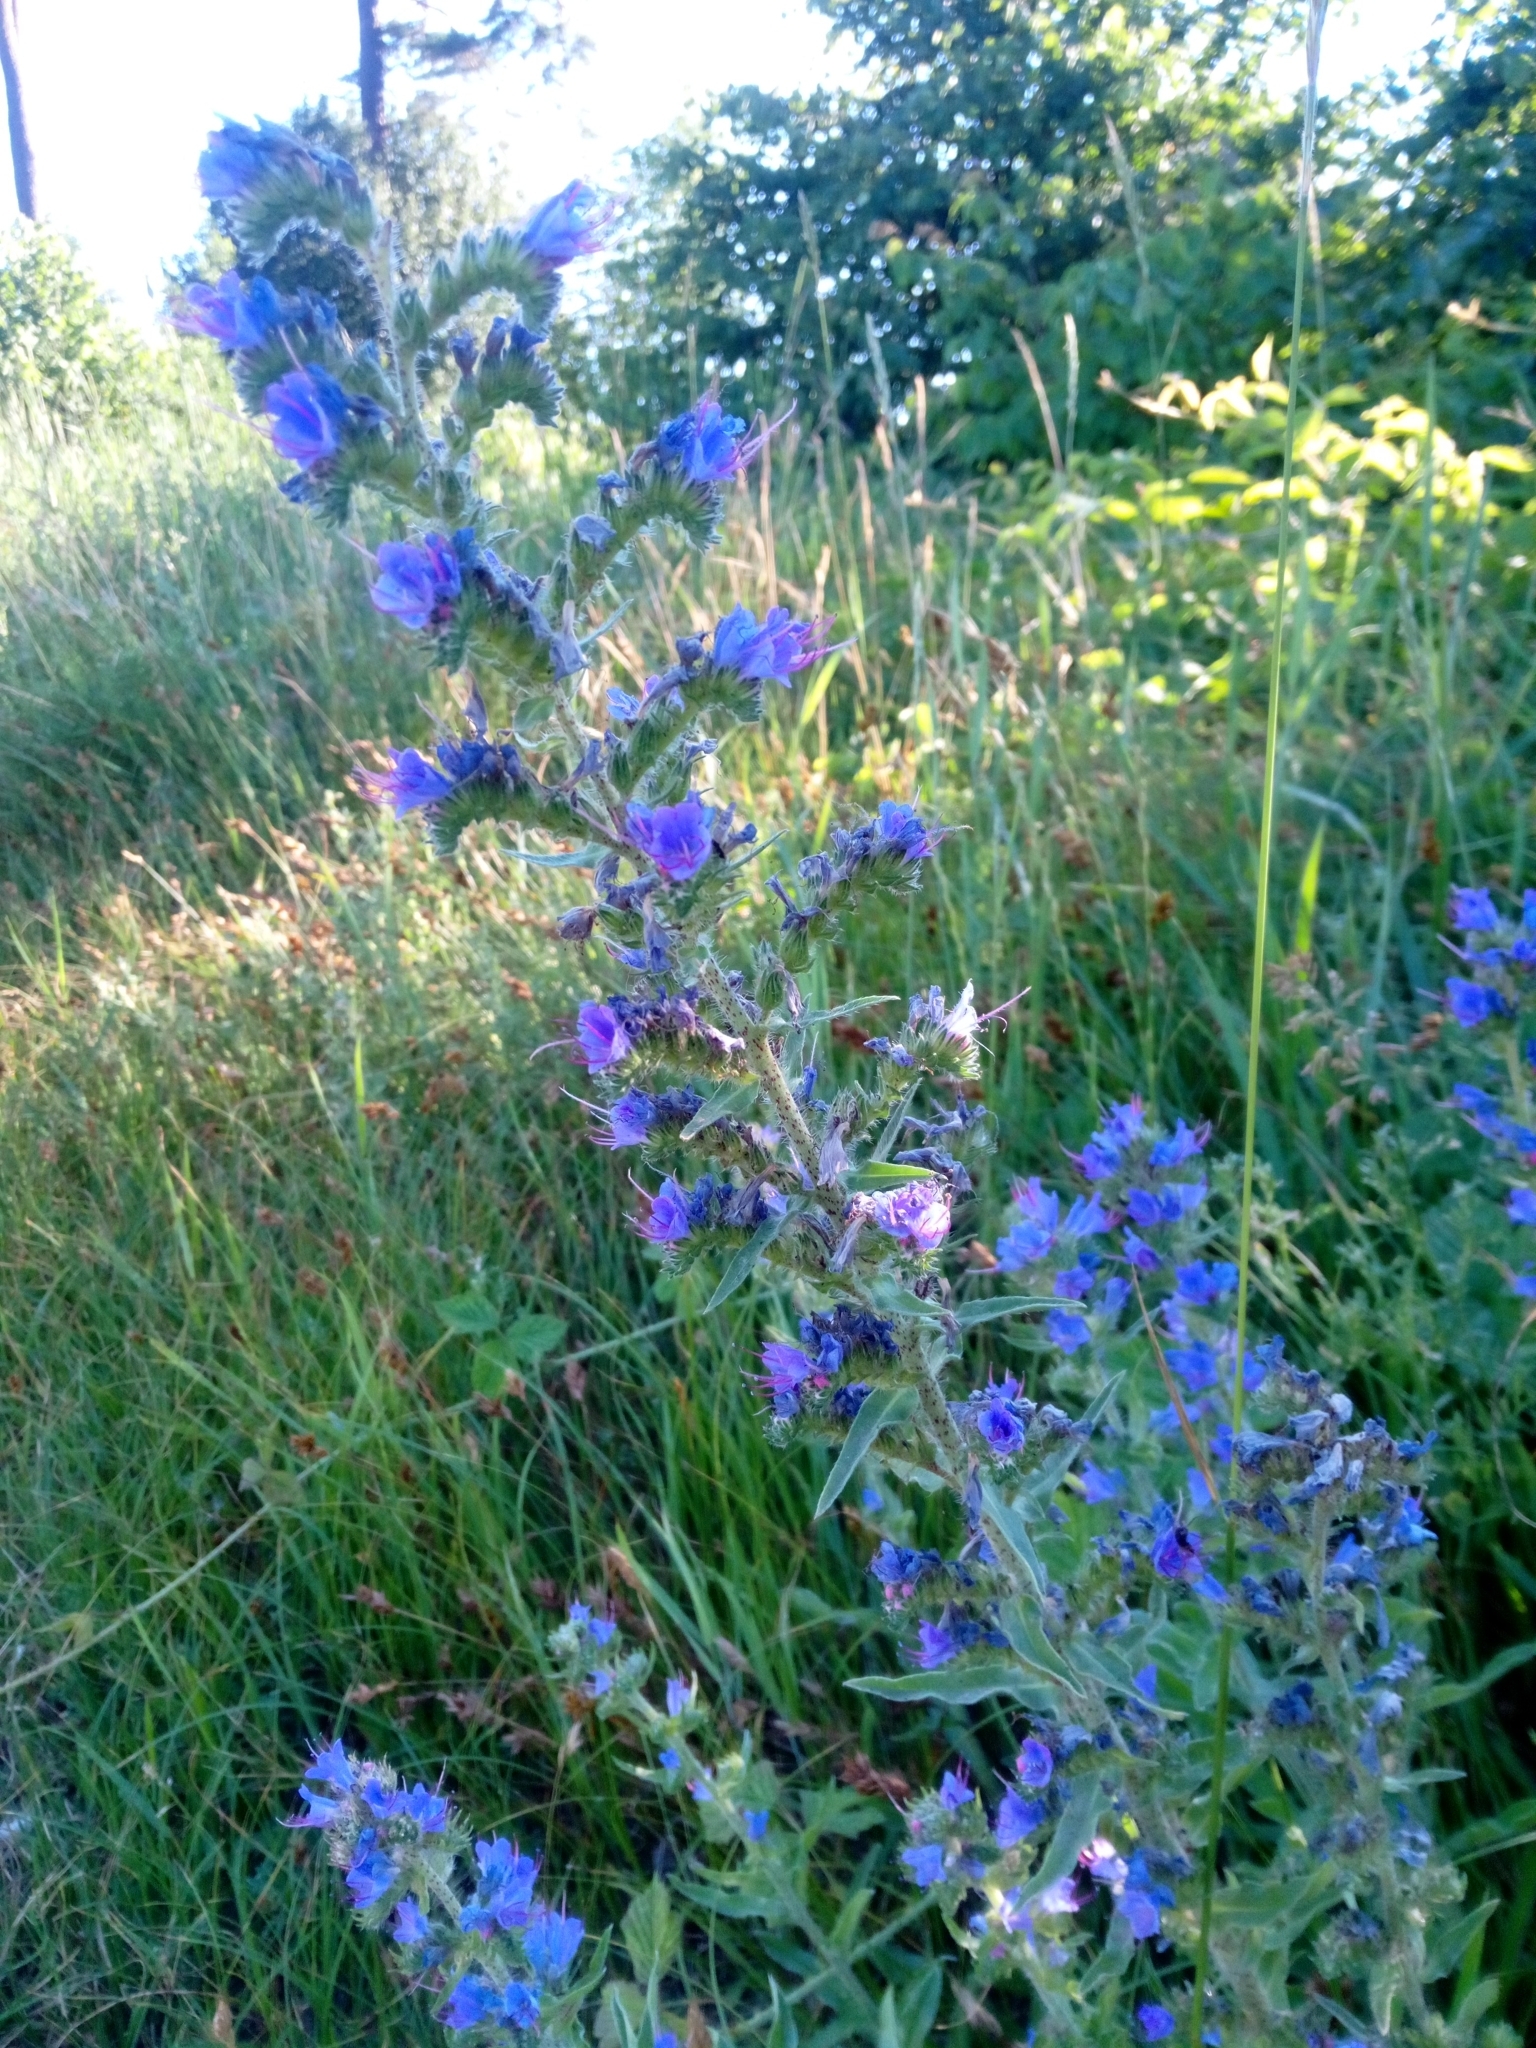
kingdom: Plantae
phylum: Tracheophyta
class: Magnoliopsida
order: Boraginales
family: Boraginaceae
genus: Echium
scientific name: Echium vulgare
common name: Common viper's bugloss
